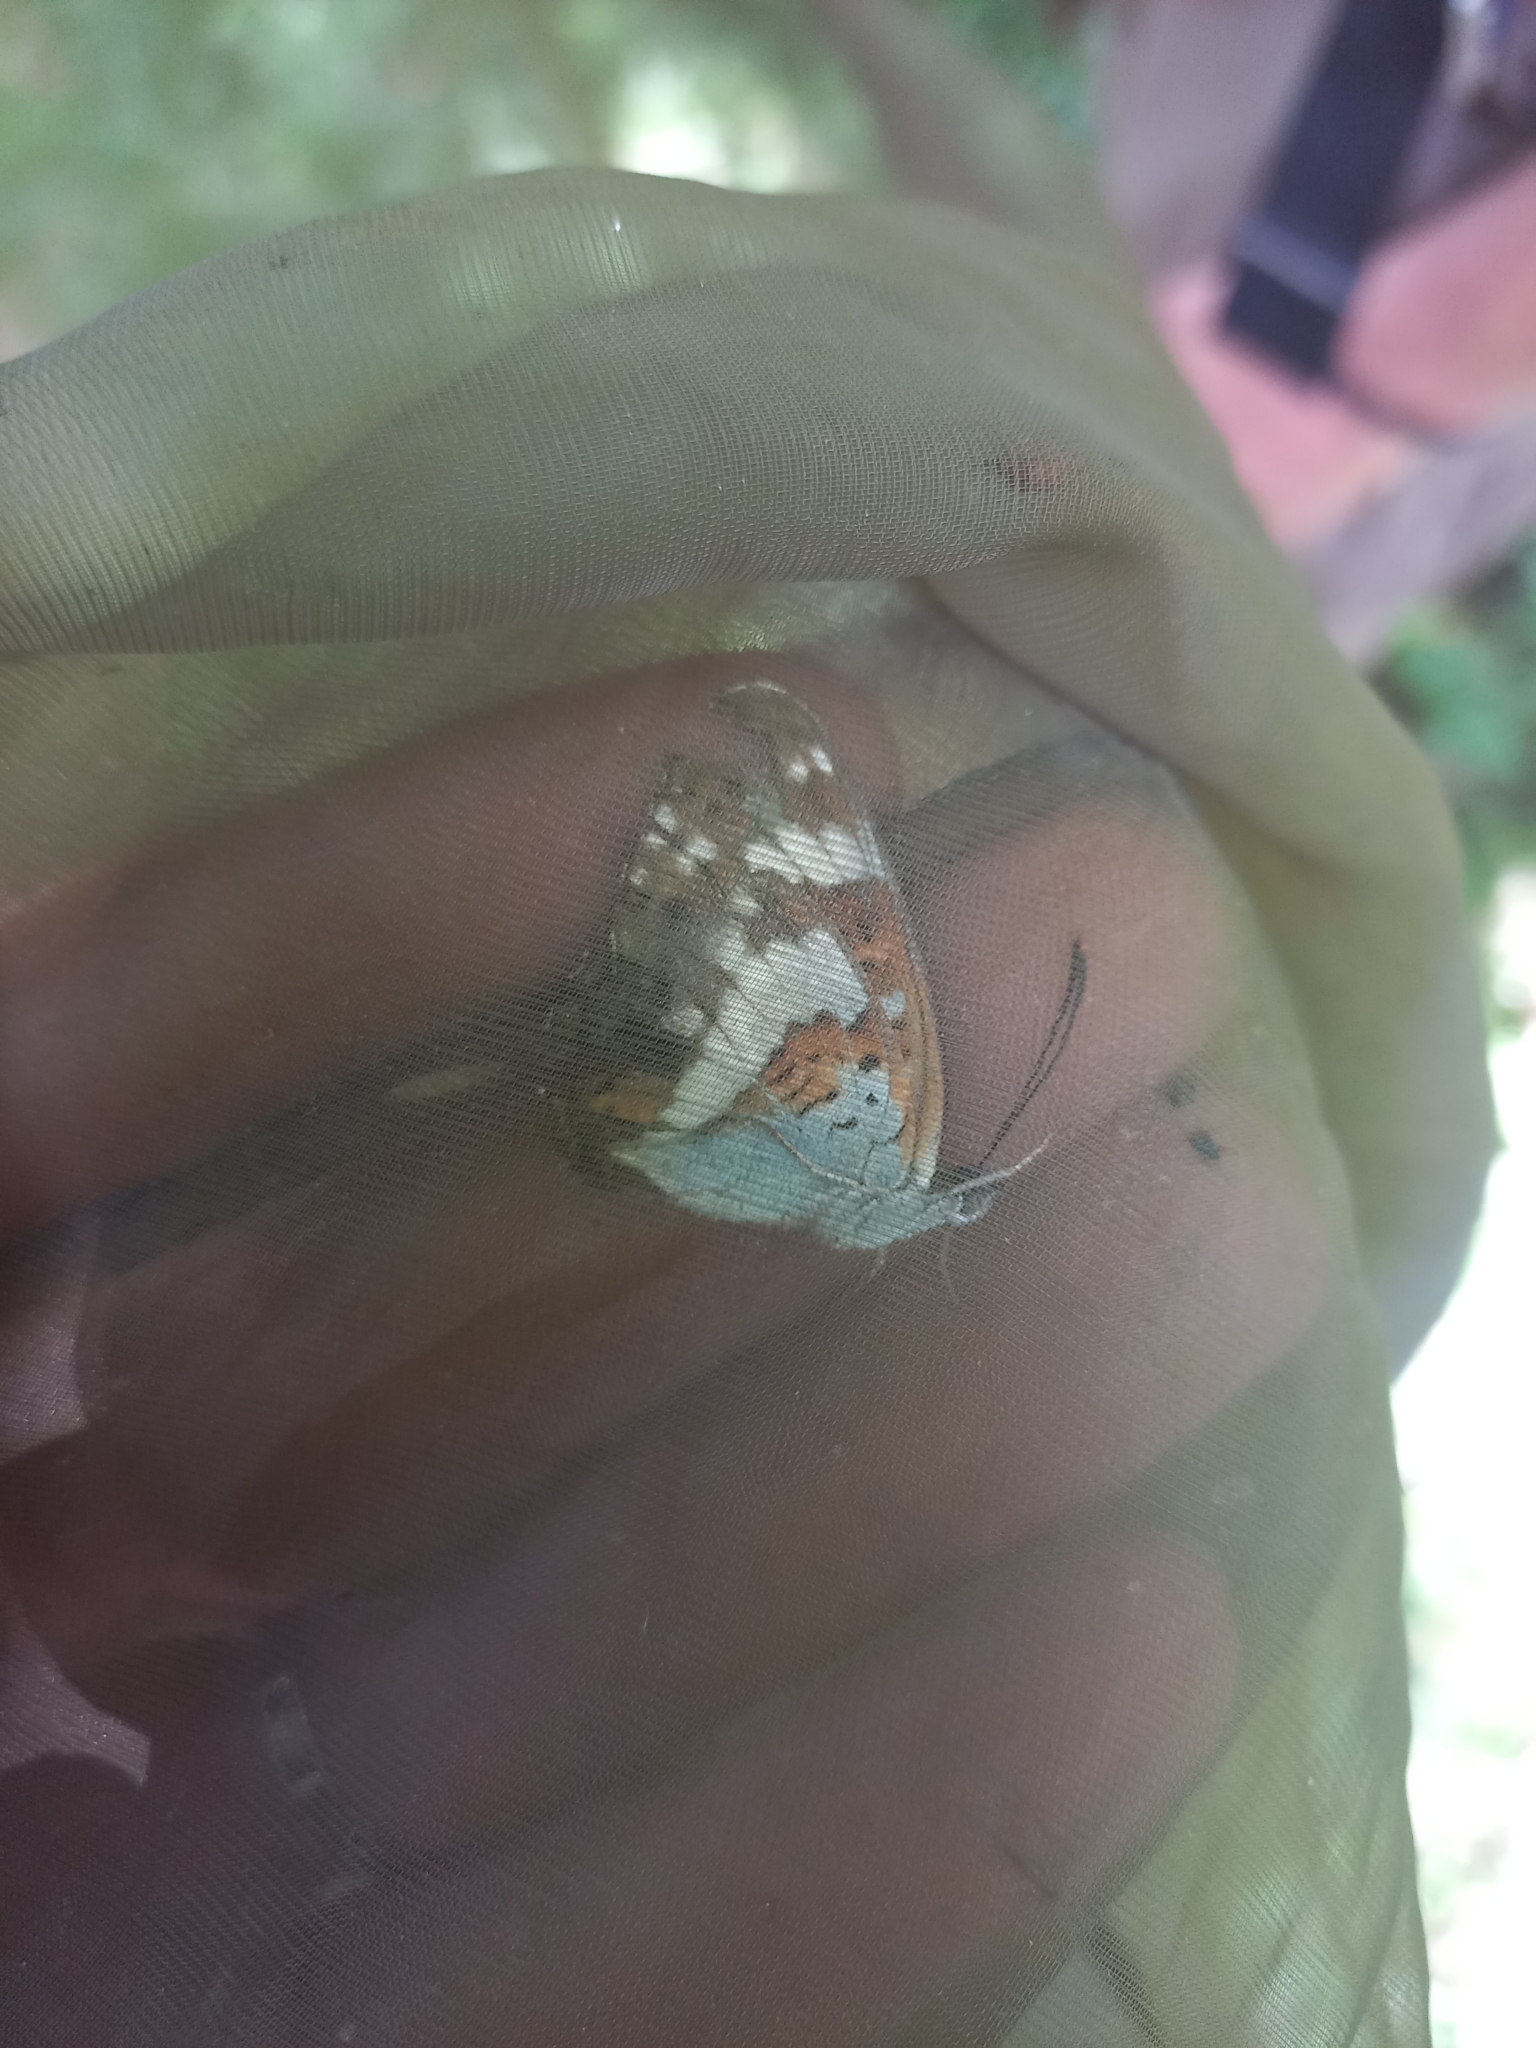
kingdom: Animalia
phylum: Arthropoda
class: Insecta
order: Lepidoptera
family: Nymphalidae
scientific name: Nymphalidae
